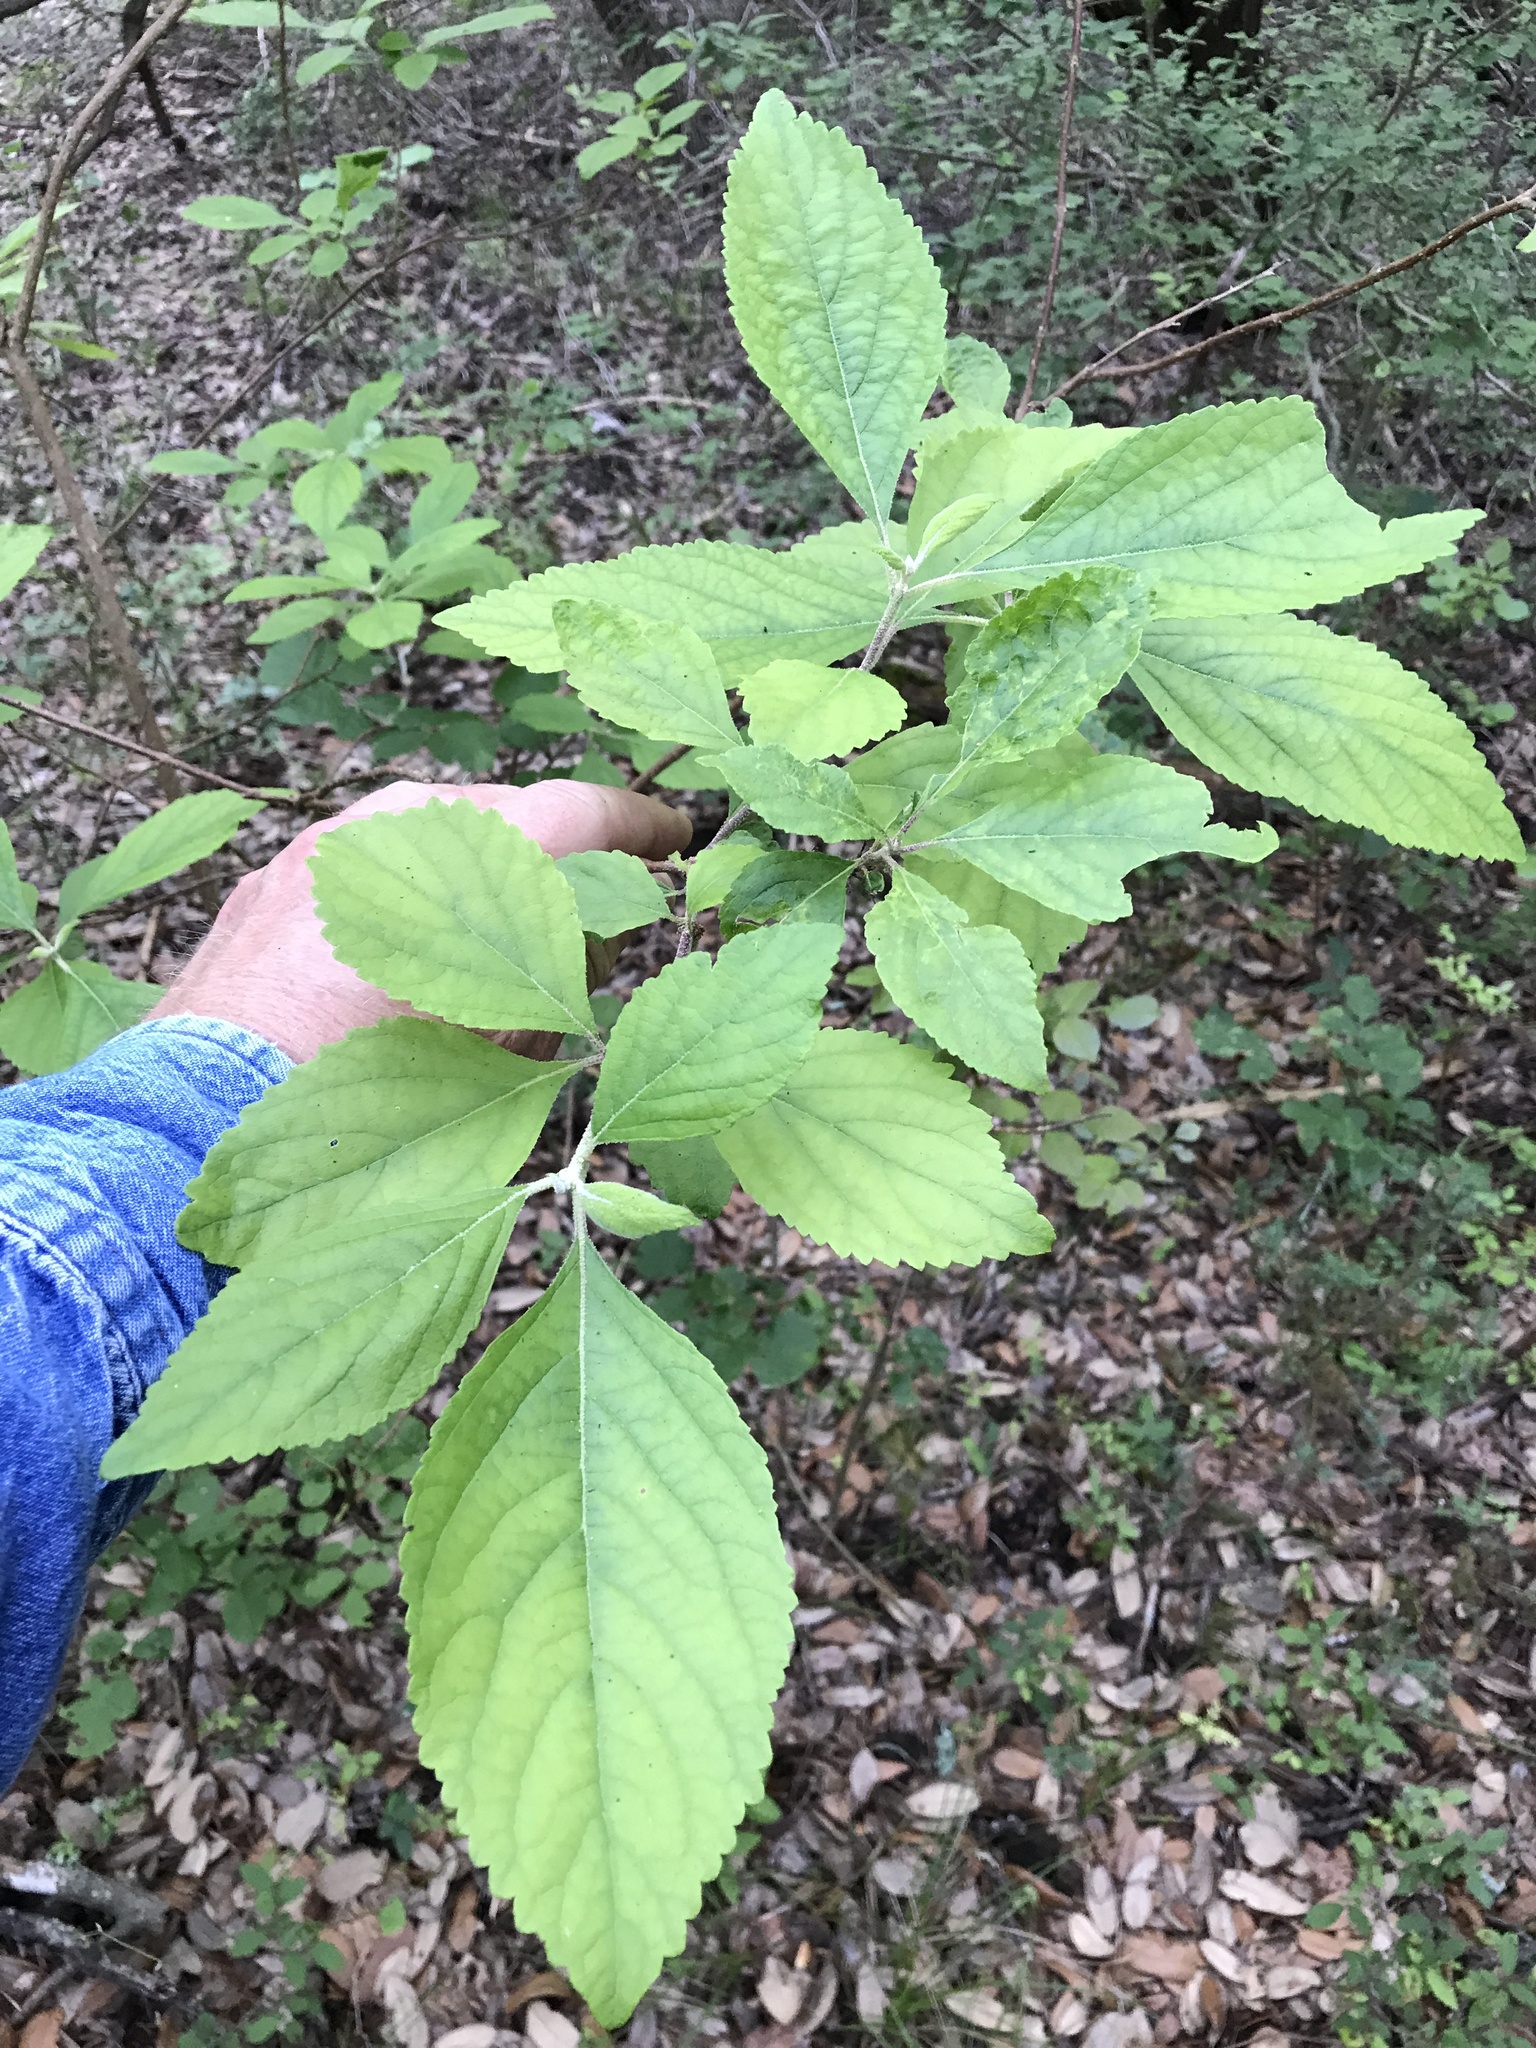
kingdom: Plantae
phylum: Tracheophyta
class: Magnoliopsida
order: Lamiales
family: Lamiaceae
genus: Callicarpa
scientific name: Callicarpa americana
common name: American beautyberry
